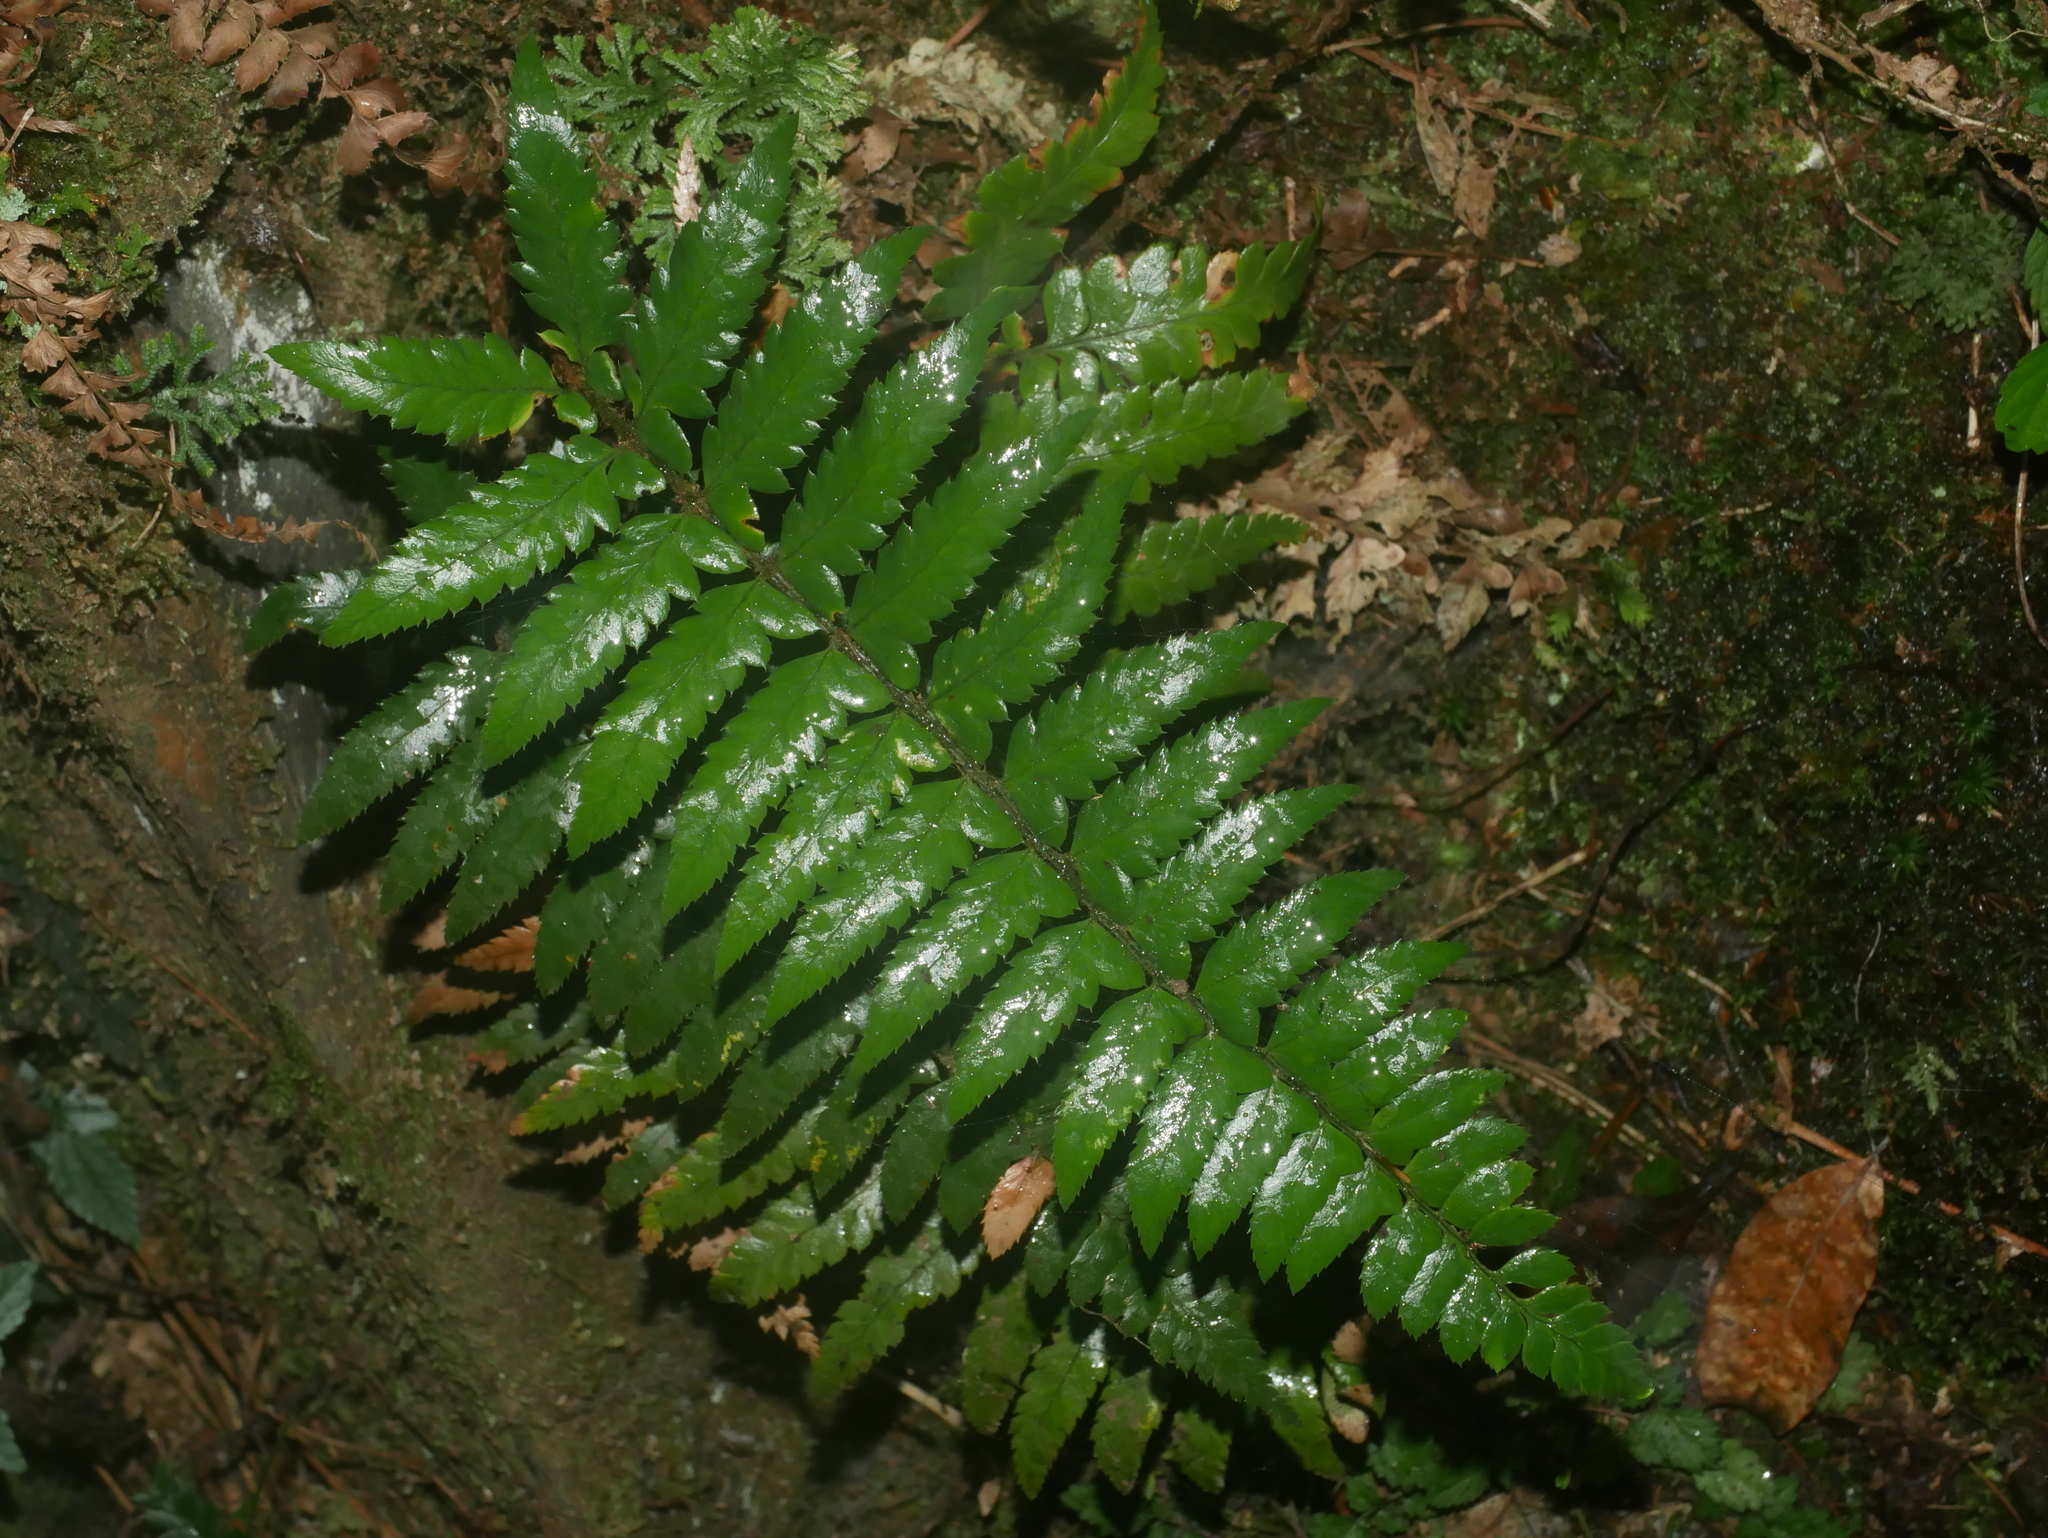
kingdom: Plantae
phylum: Tracheophyta
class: Polypodiopsida
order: Polypodiales
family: Dryopteridaceae
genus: Polystichum
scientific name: Polystichum prionolepis
